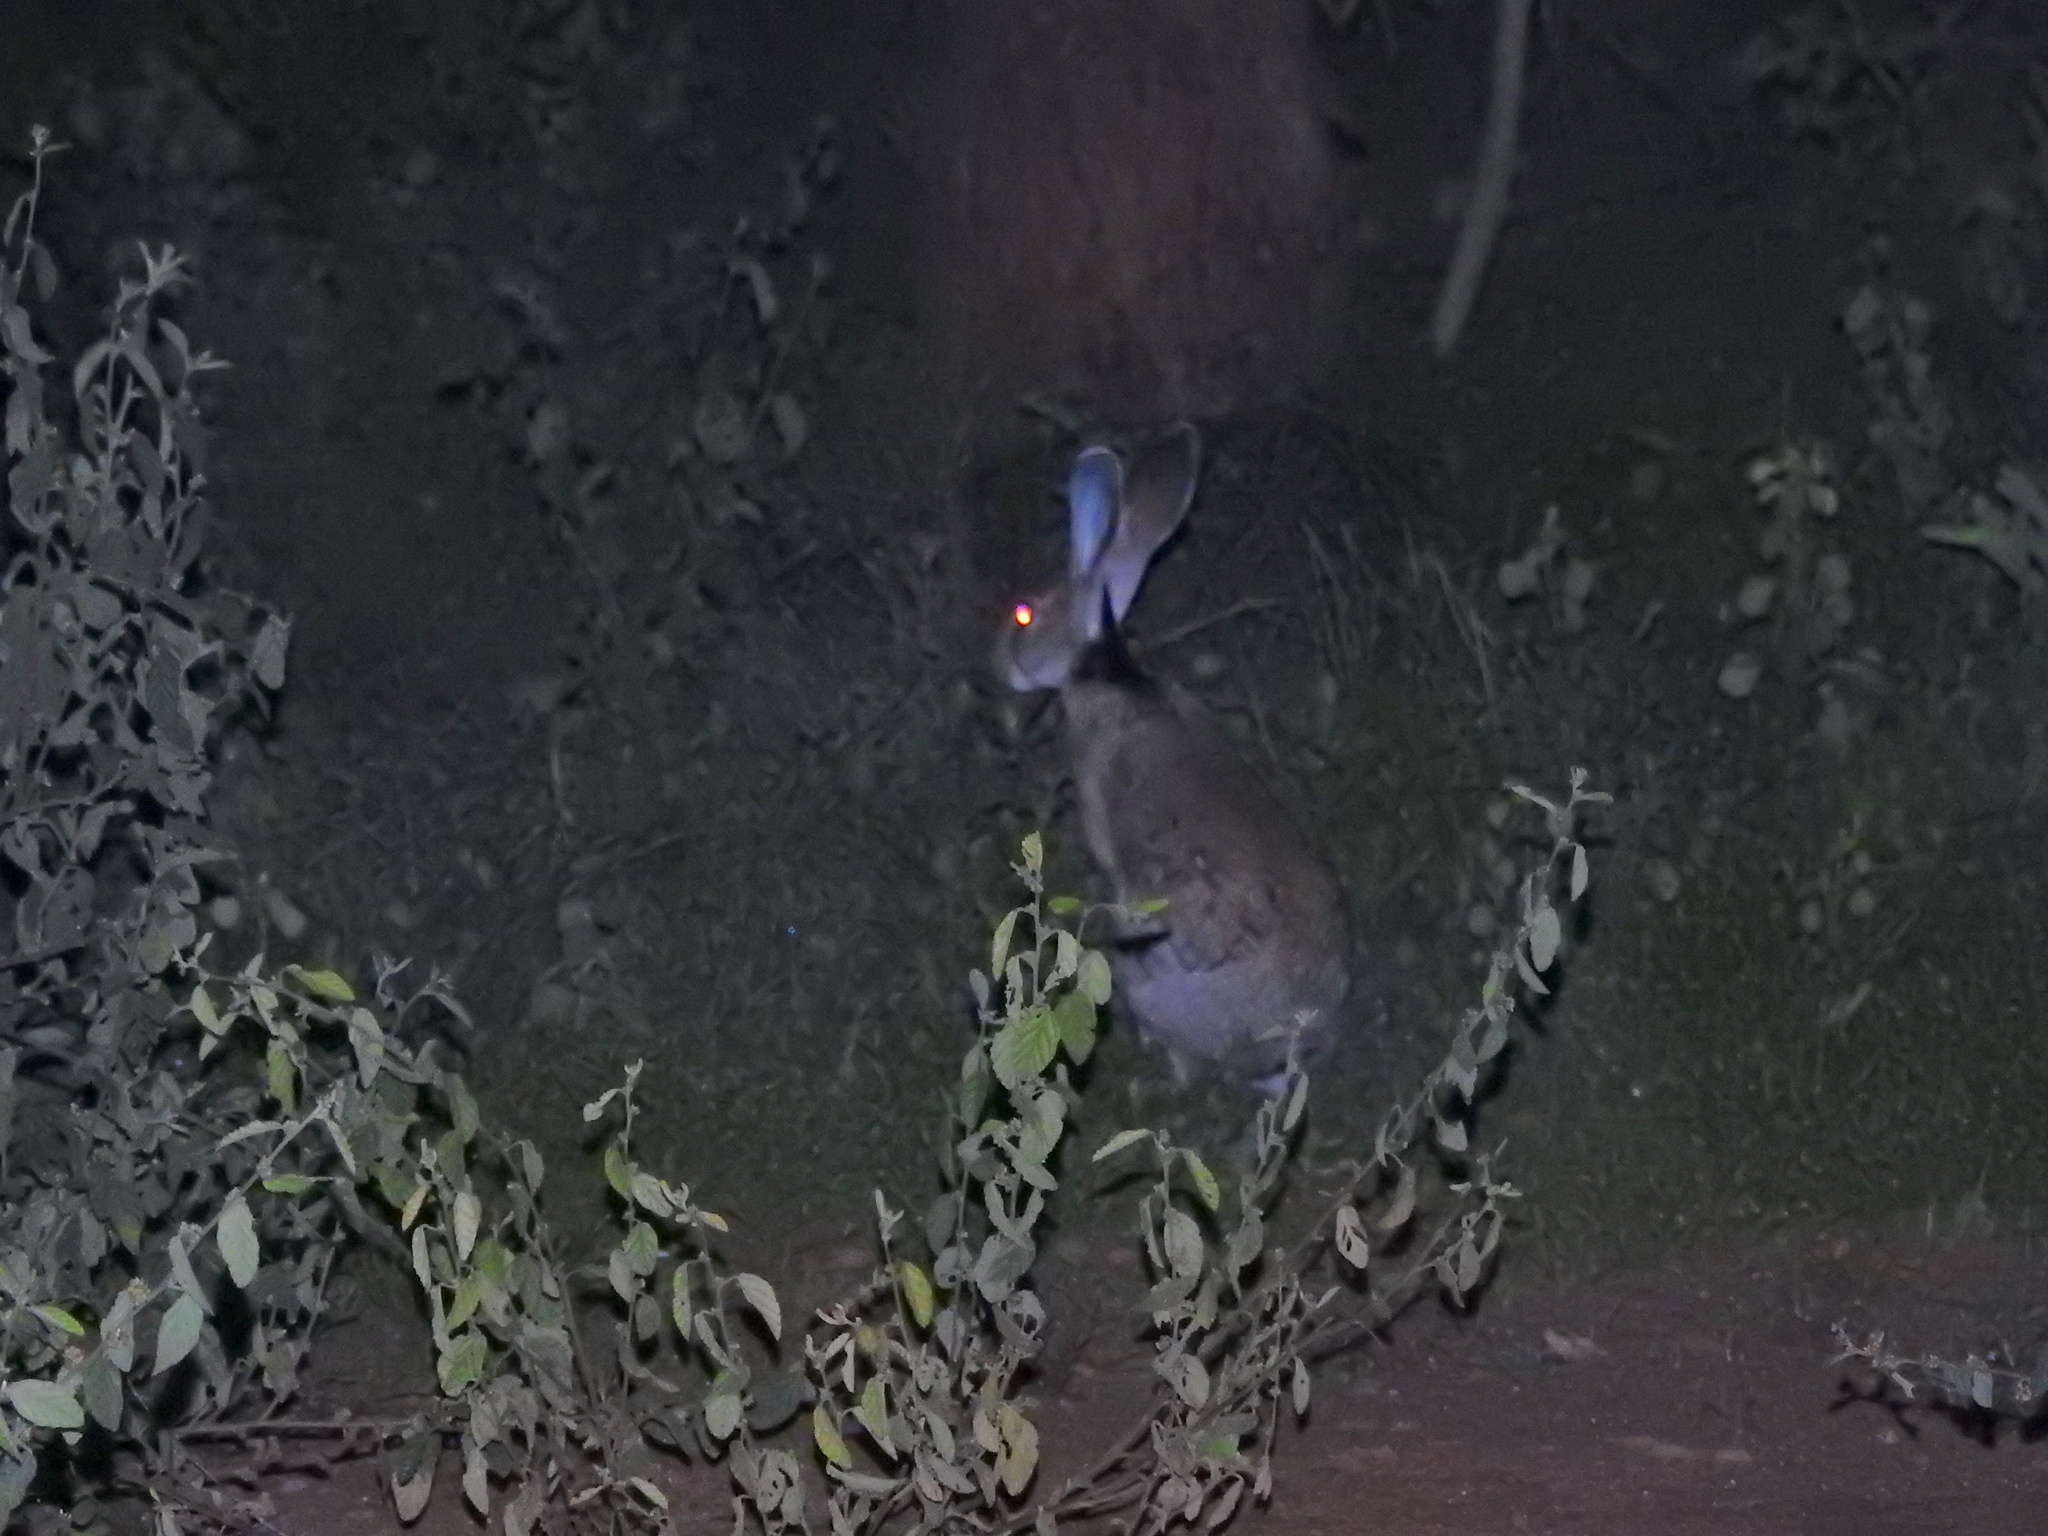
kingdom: Animalia
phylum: Chordata
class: Mammalia
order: Lagomorpha
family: Leporidae
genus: Lepus
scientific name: Lepus nigricollis
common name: Indian hare
